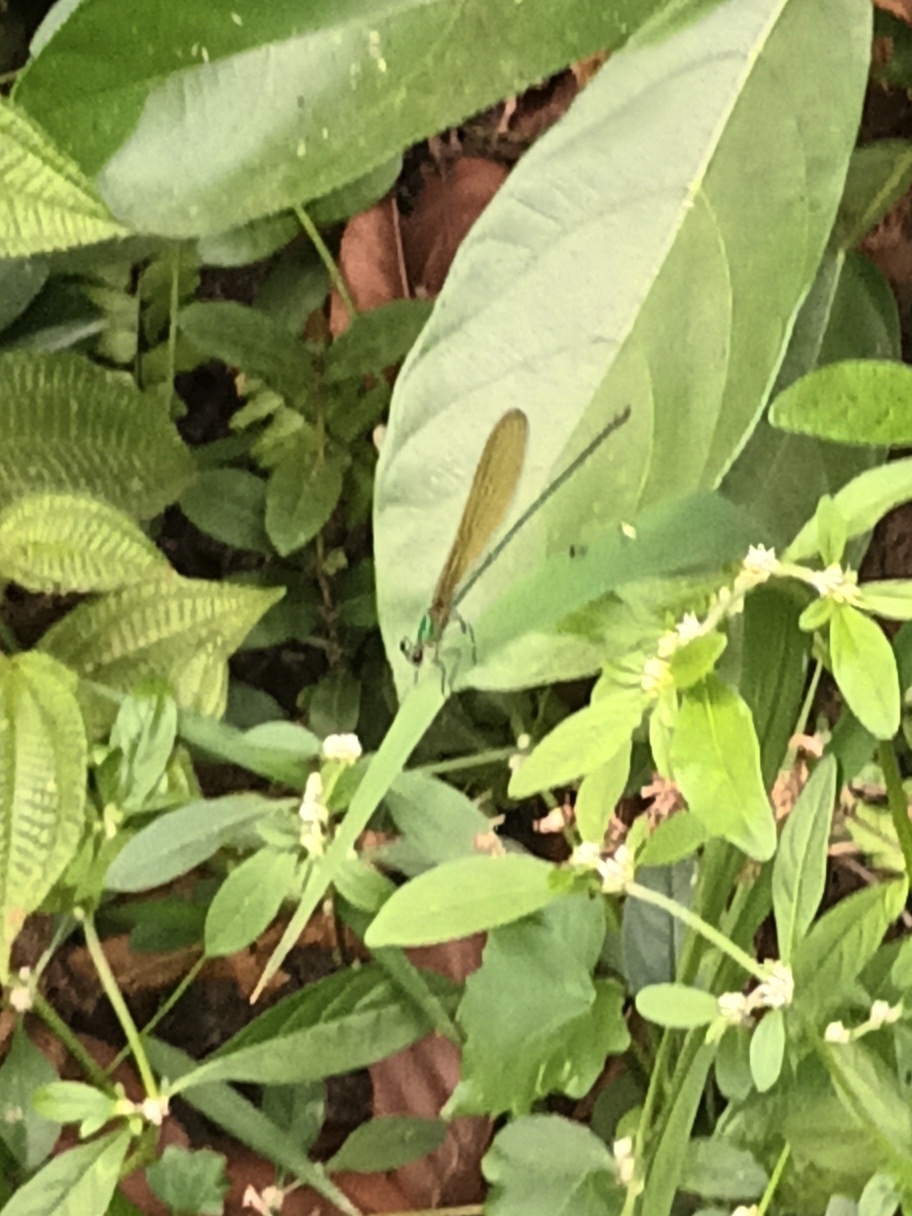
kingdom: Animalia
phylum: Arthropoda
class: Insecta
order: Odonata
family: Calopterygidae
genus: Vestalis
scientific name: Vestalis gracilis
